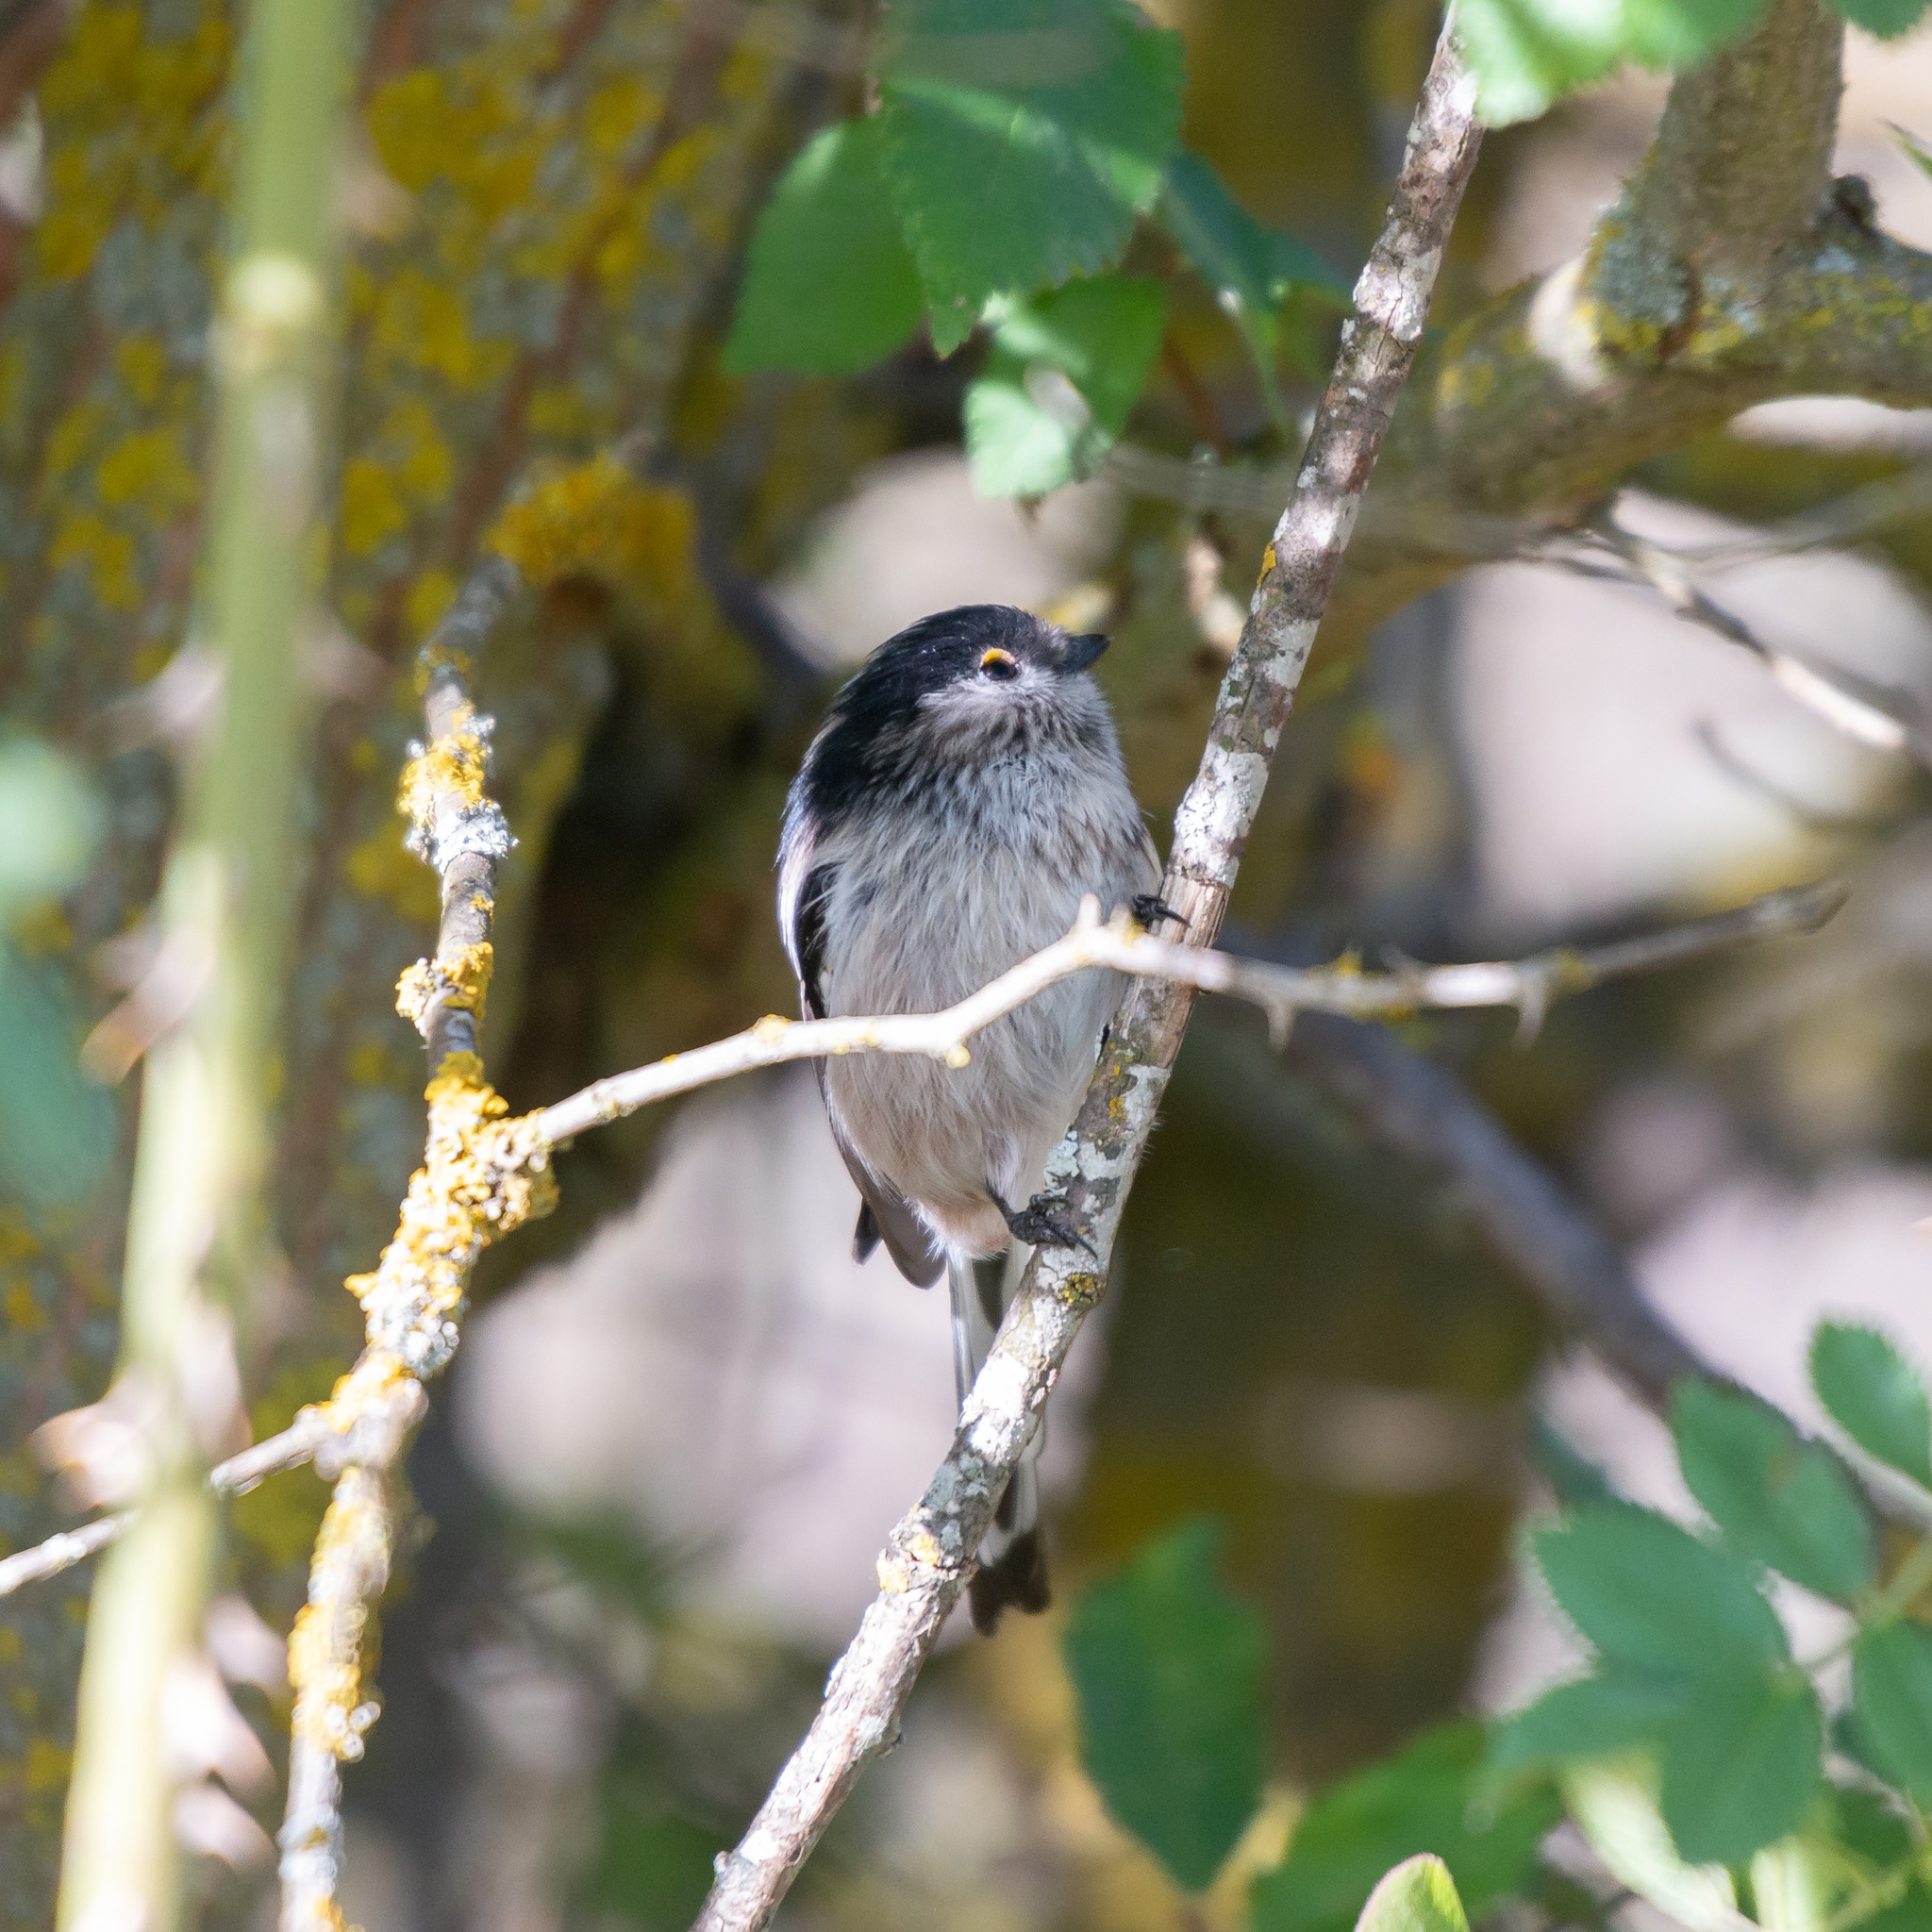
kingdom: Animalia
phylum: Chordata
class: Aves
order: Passeriformes
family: Aegithalidae
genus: Aegithalos
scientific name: Aegithalos caudatus
